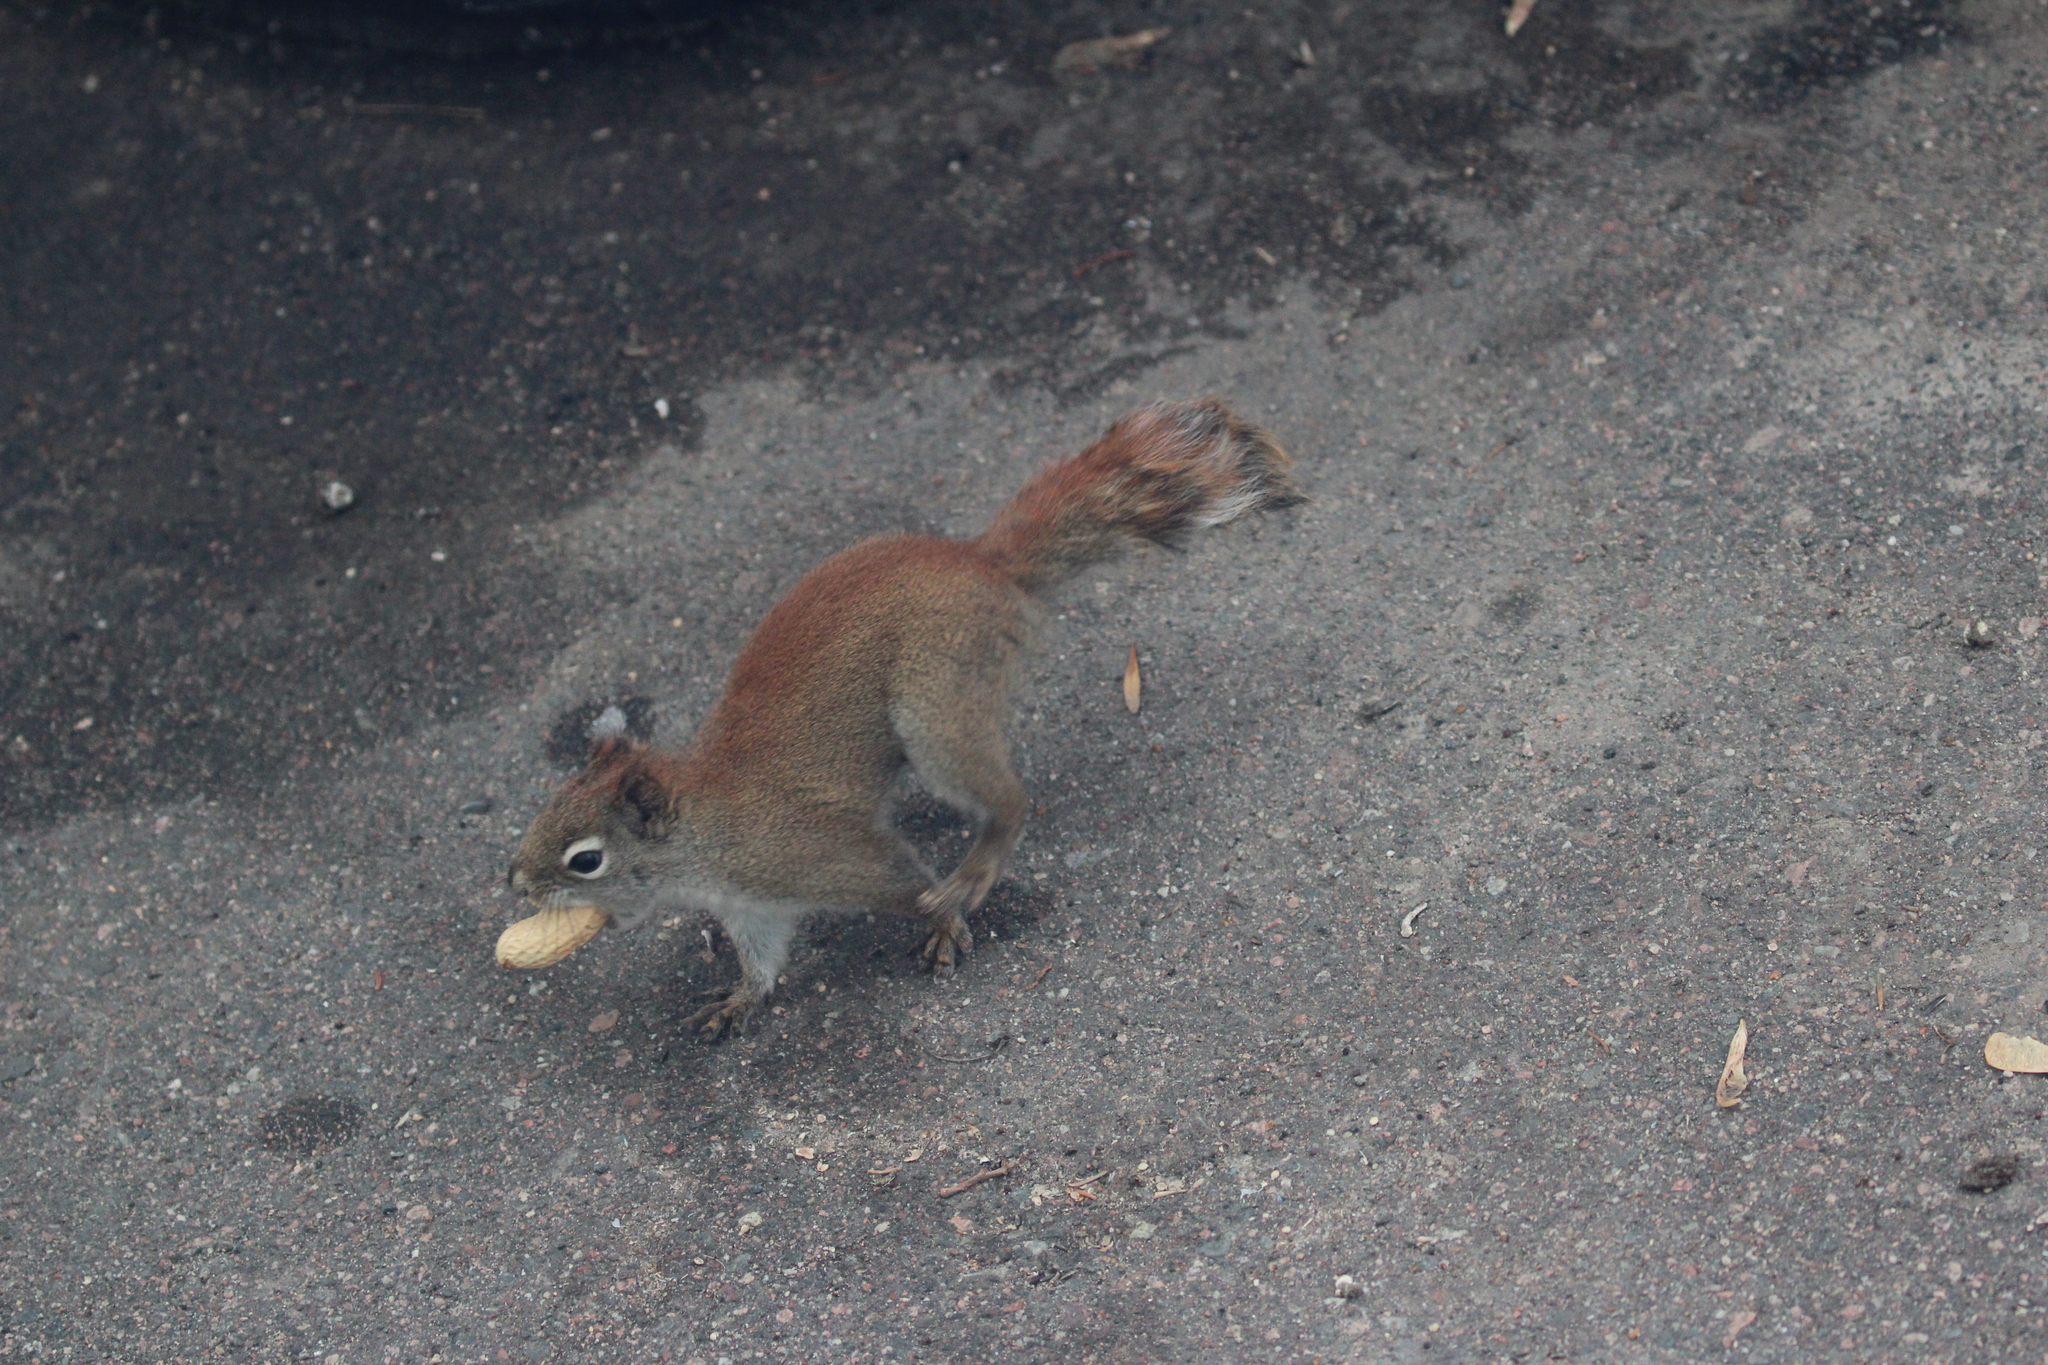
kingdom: Animalia
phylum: Chordata
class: Mammalia
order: Rodentia
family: Sciuridae
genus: Tamiasciurus
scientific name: Tamiasciurus hudsonicus
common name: Red squirrel
